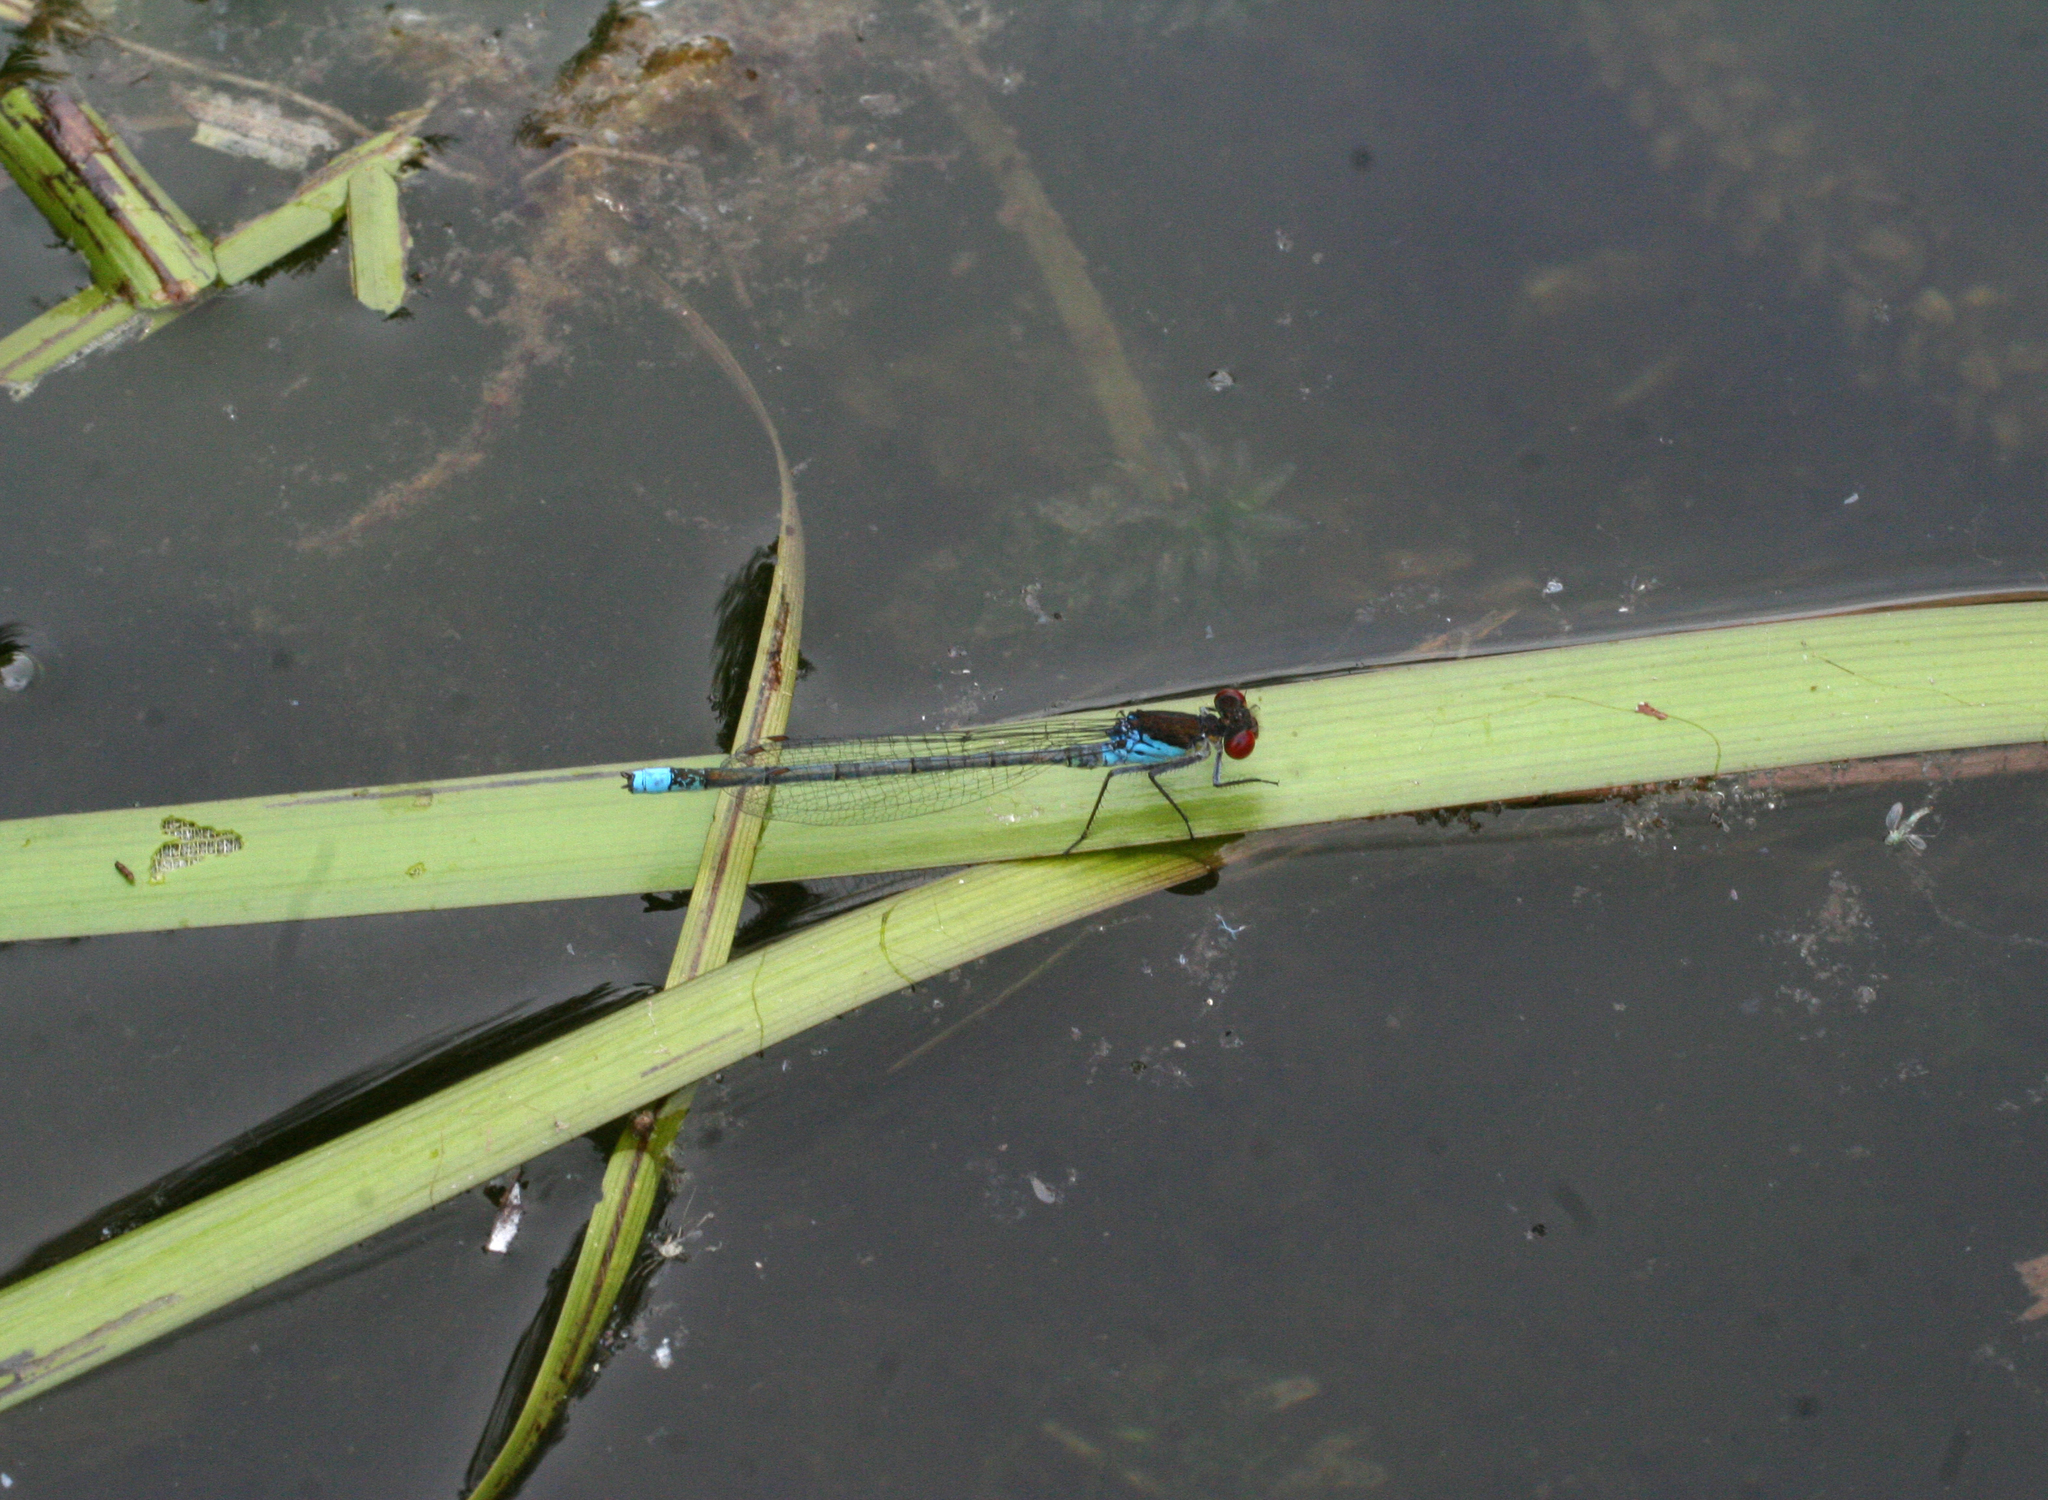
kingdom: Animalia
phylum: Arthropoda
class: Insecta
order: Odonata
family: Coenagrionidae
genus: Erythromma
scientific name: Erythromma najas
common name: Red-eyed damselfly
